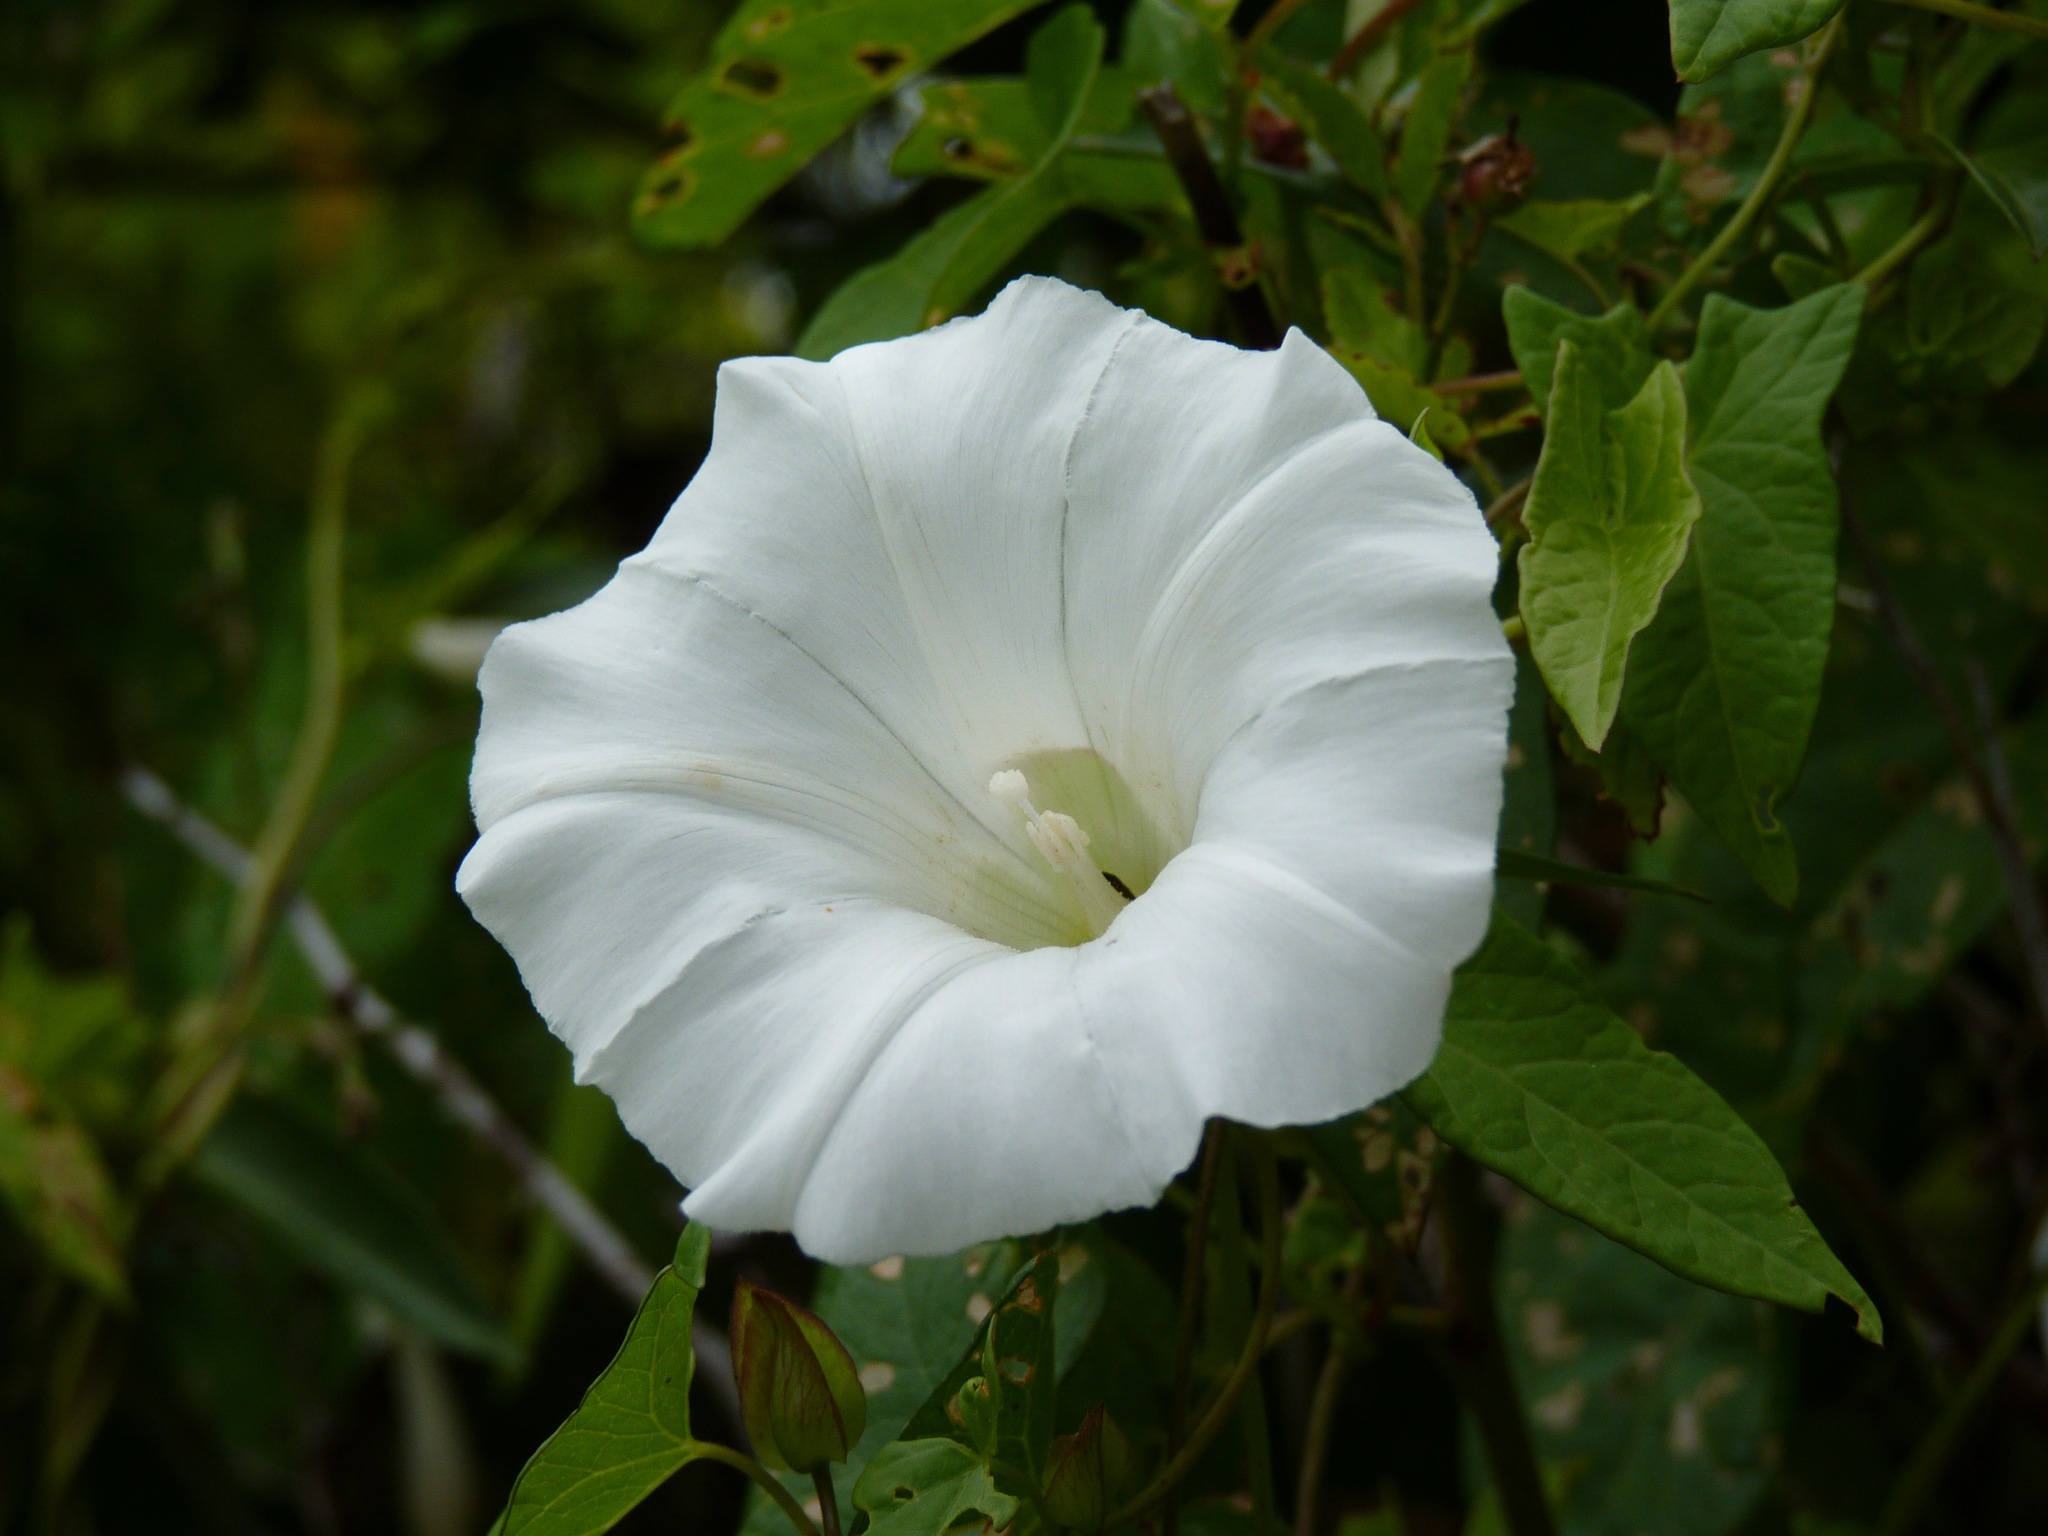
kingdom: Plantae
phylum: Tracheophyta
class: Magnoliopsida
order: Solanales
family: Convolvulaceae
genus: Calystegia
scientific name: Calystegia sepium
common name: Hedge bindweed
